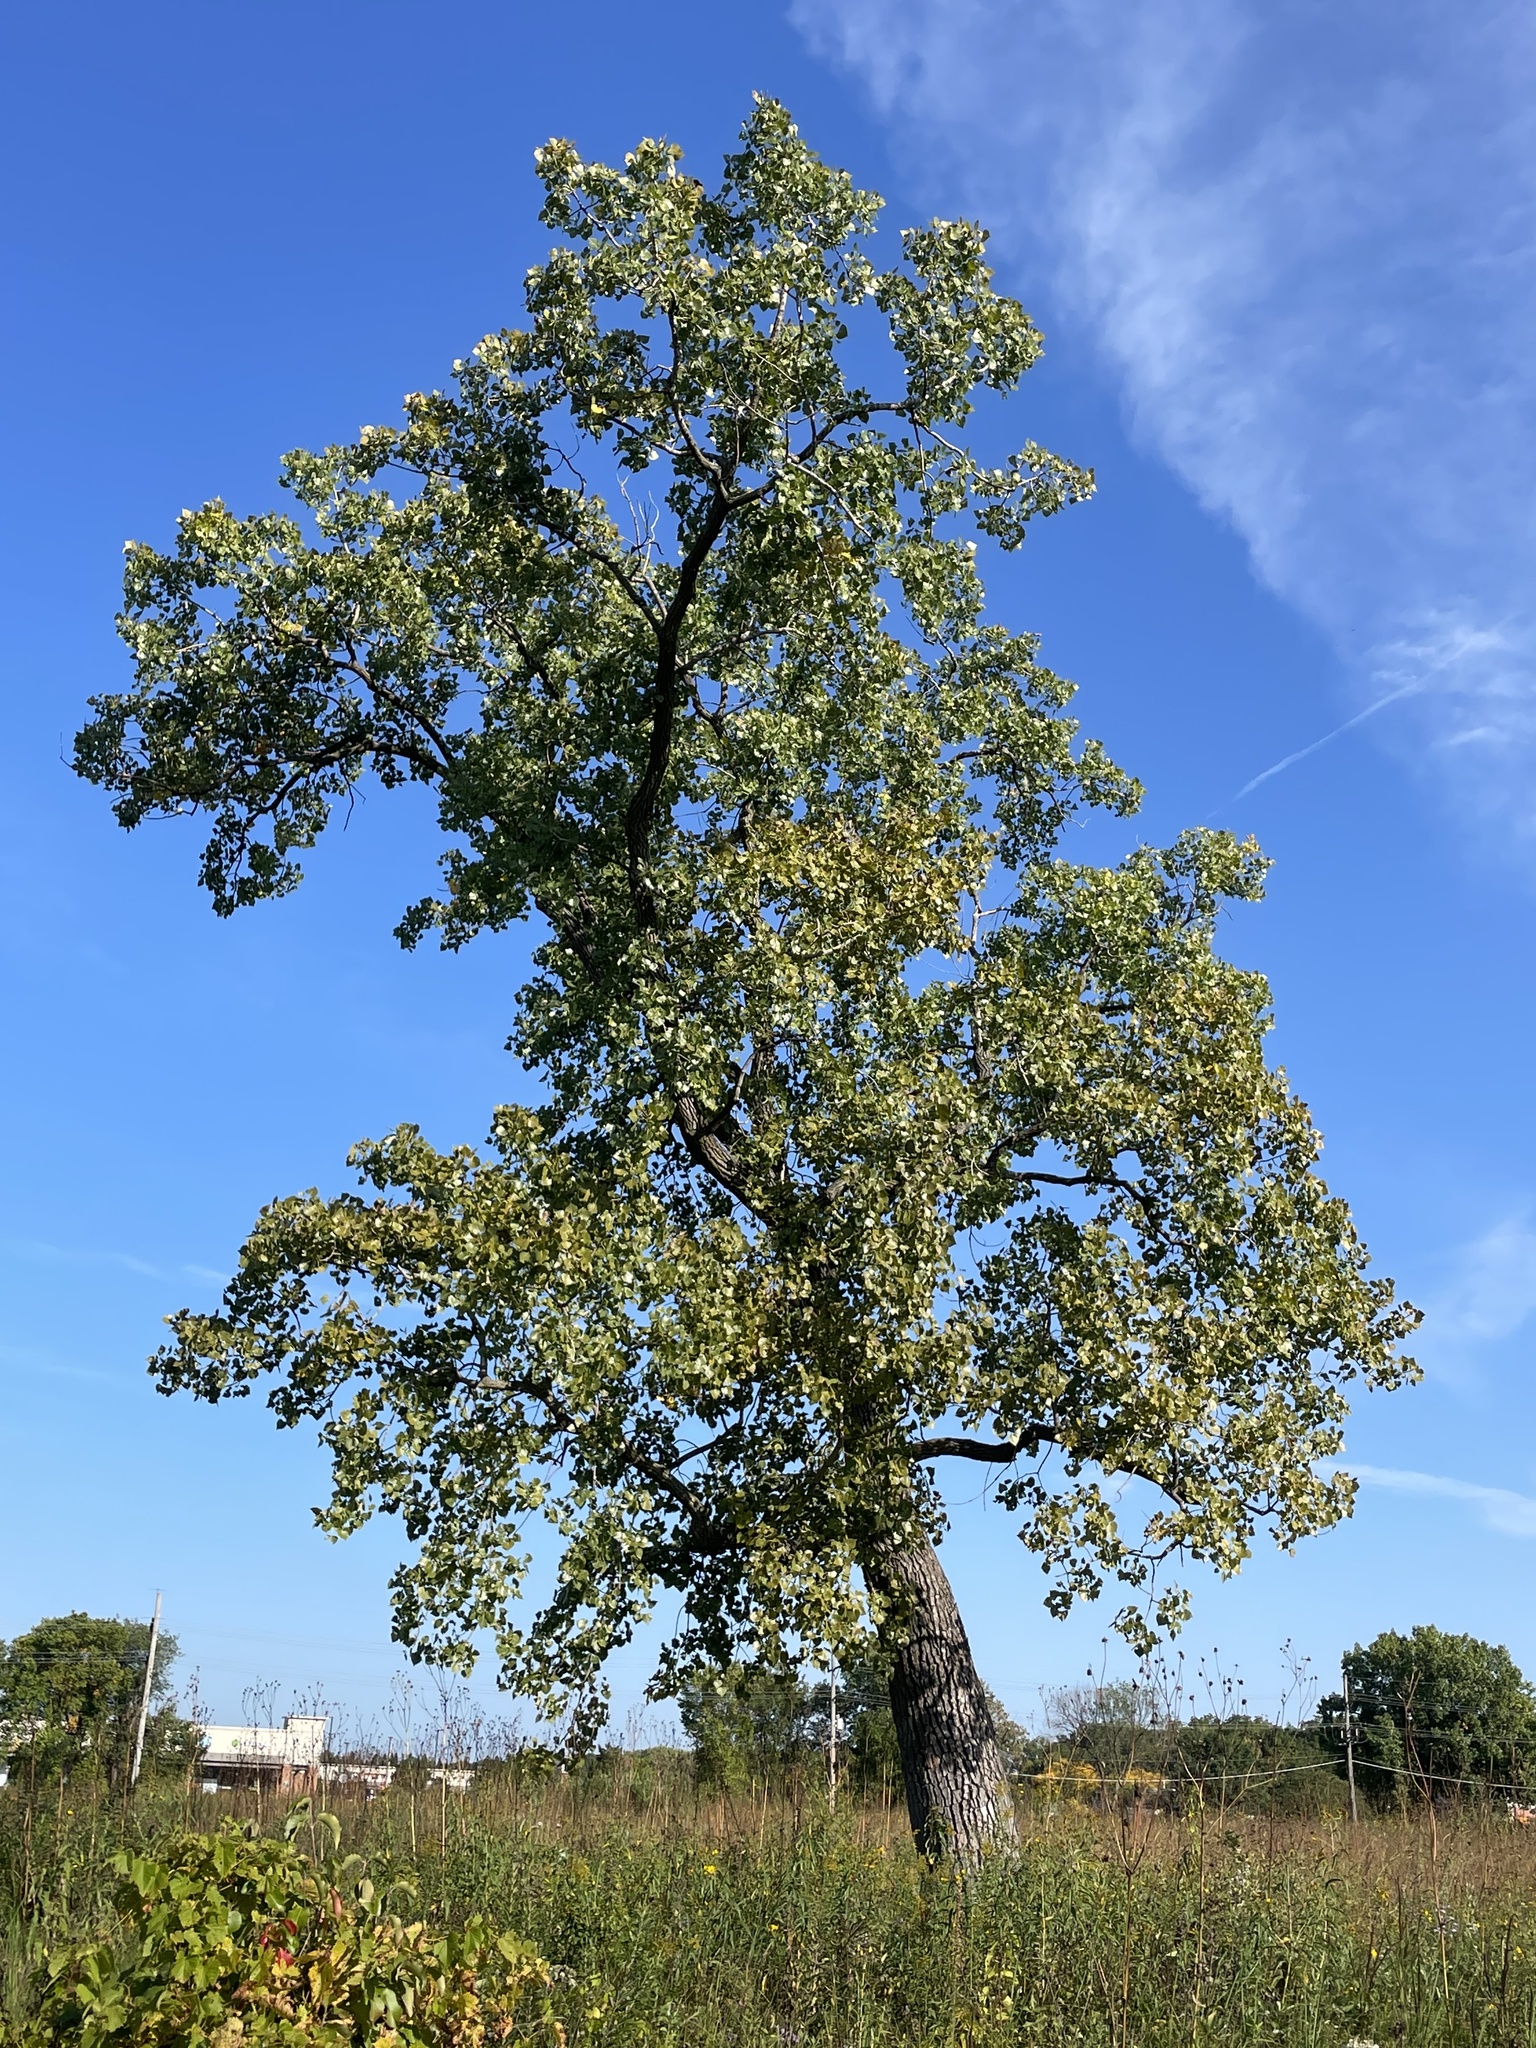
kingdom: Plantae
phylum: Tracheophyta
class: Magnoliopsida
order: Malpighiales
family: Salicaceae
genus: Populus
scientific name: Populus deltoides
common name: Eastern cottonwood
